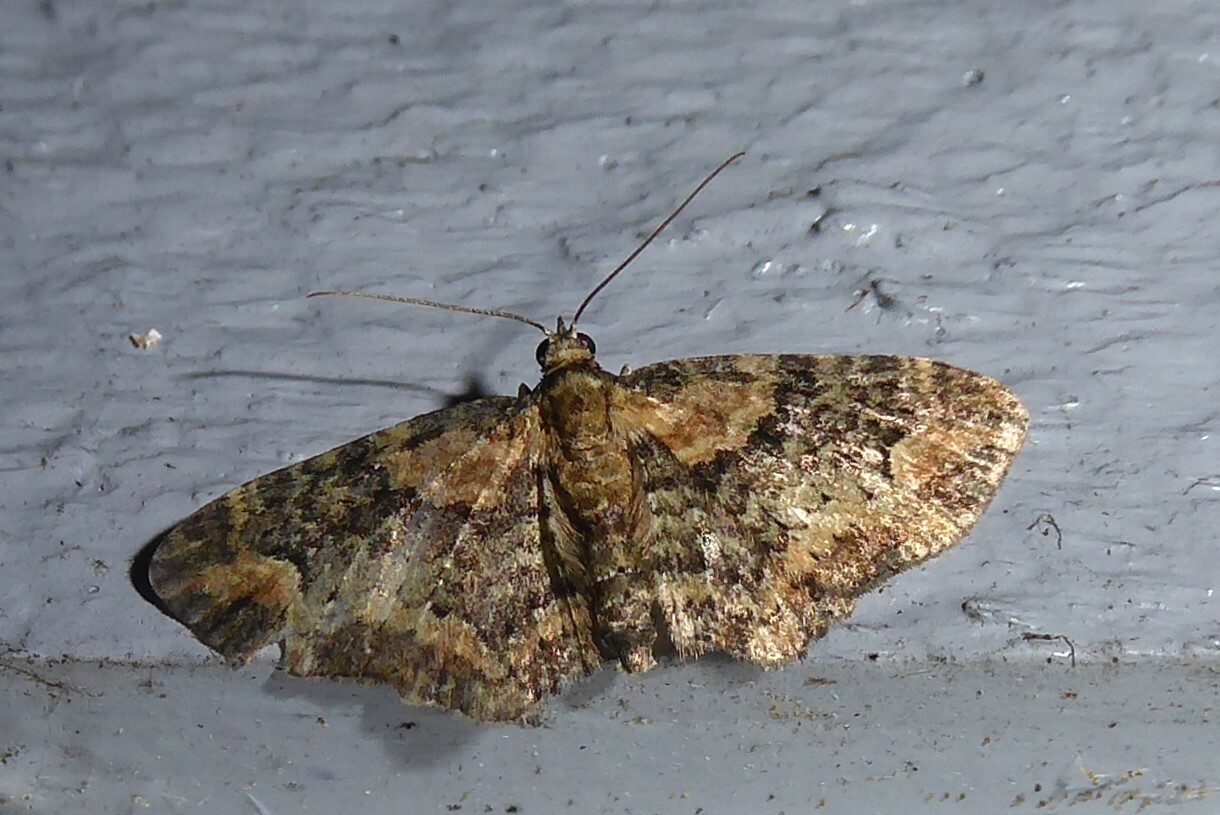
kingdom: Animalia
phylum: Arthropoda
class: Insecta
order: Lepidoptera
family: Geometridae
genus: Pasiphilodes
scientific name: Pasiphilodes testulata
